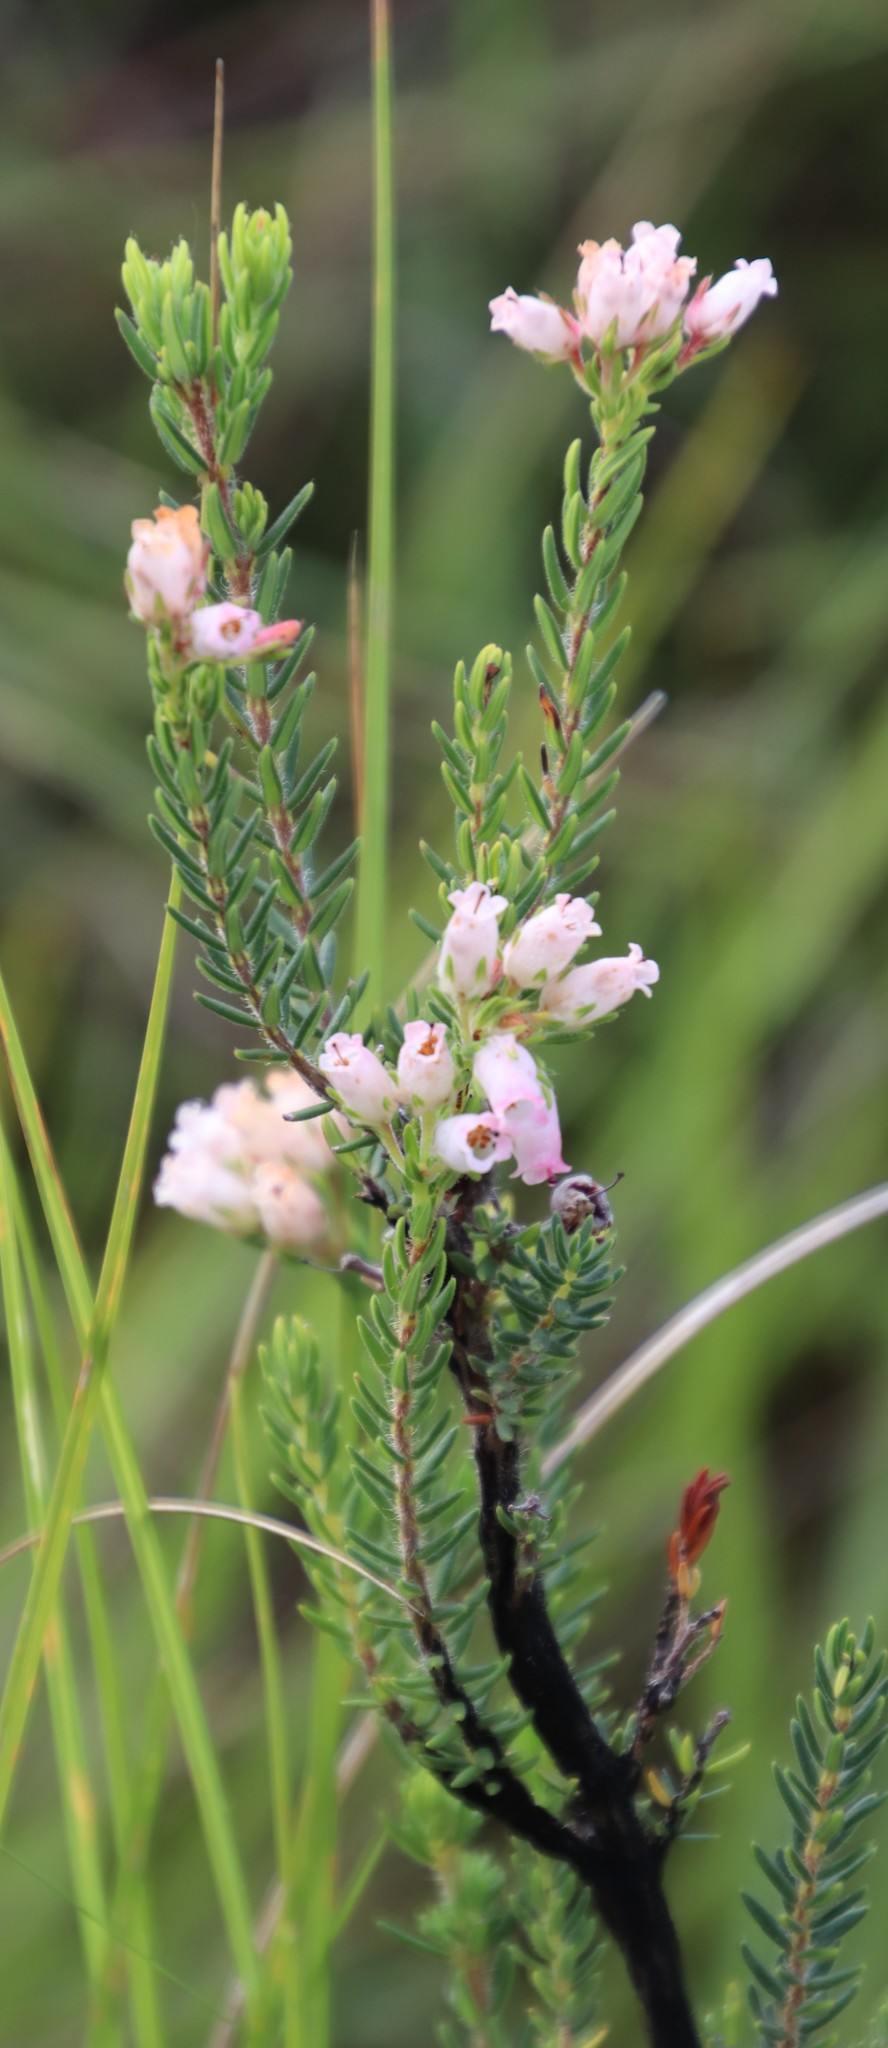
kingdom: Plantae
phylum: Tracheophyta
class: Magnoliopsida
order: Ericales
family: Ericaceae
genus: Erica
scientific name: Erica oatesii
